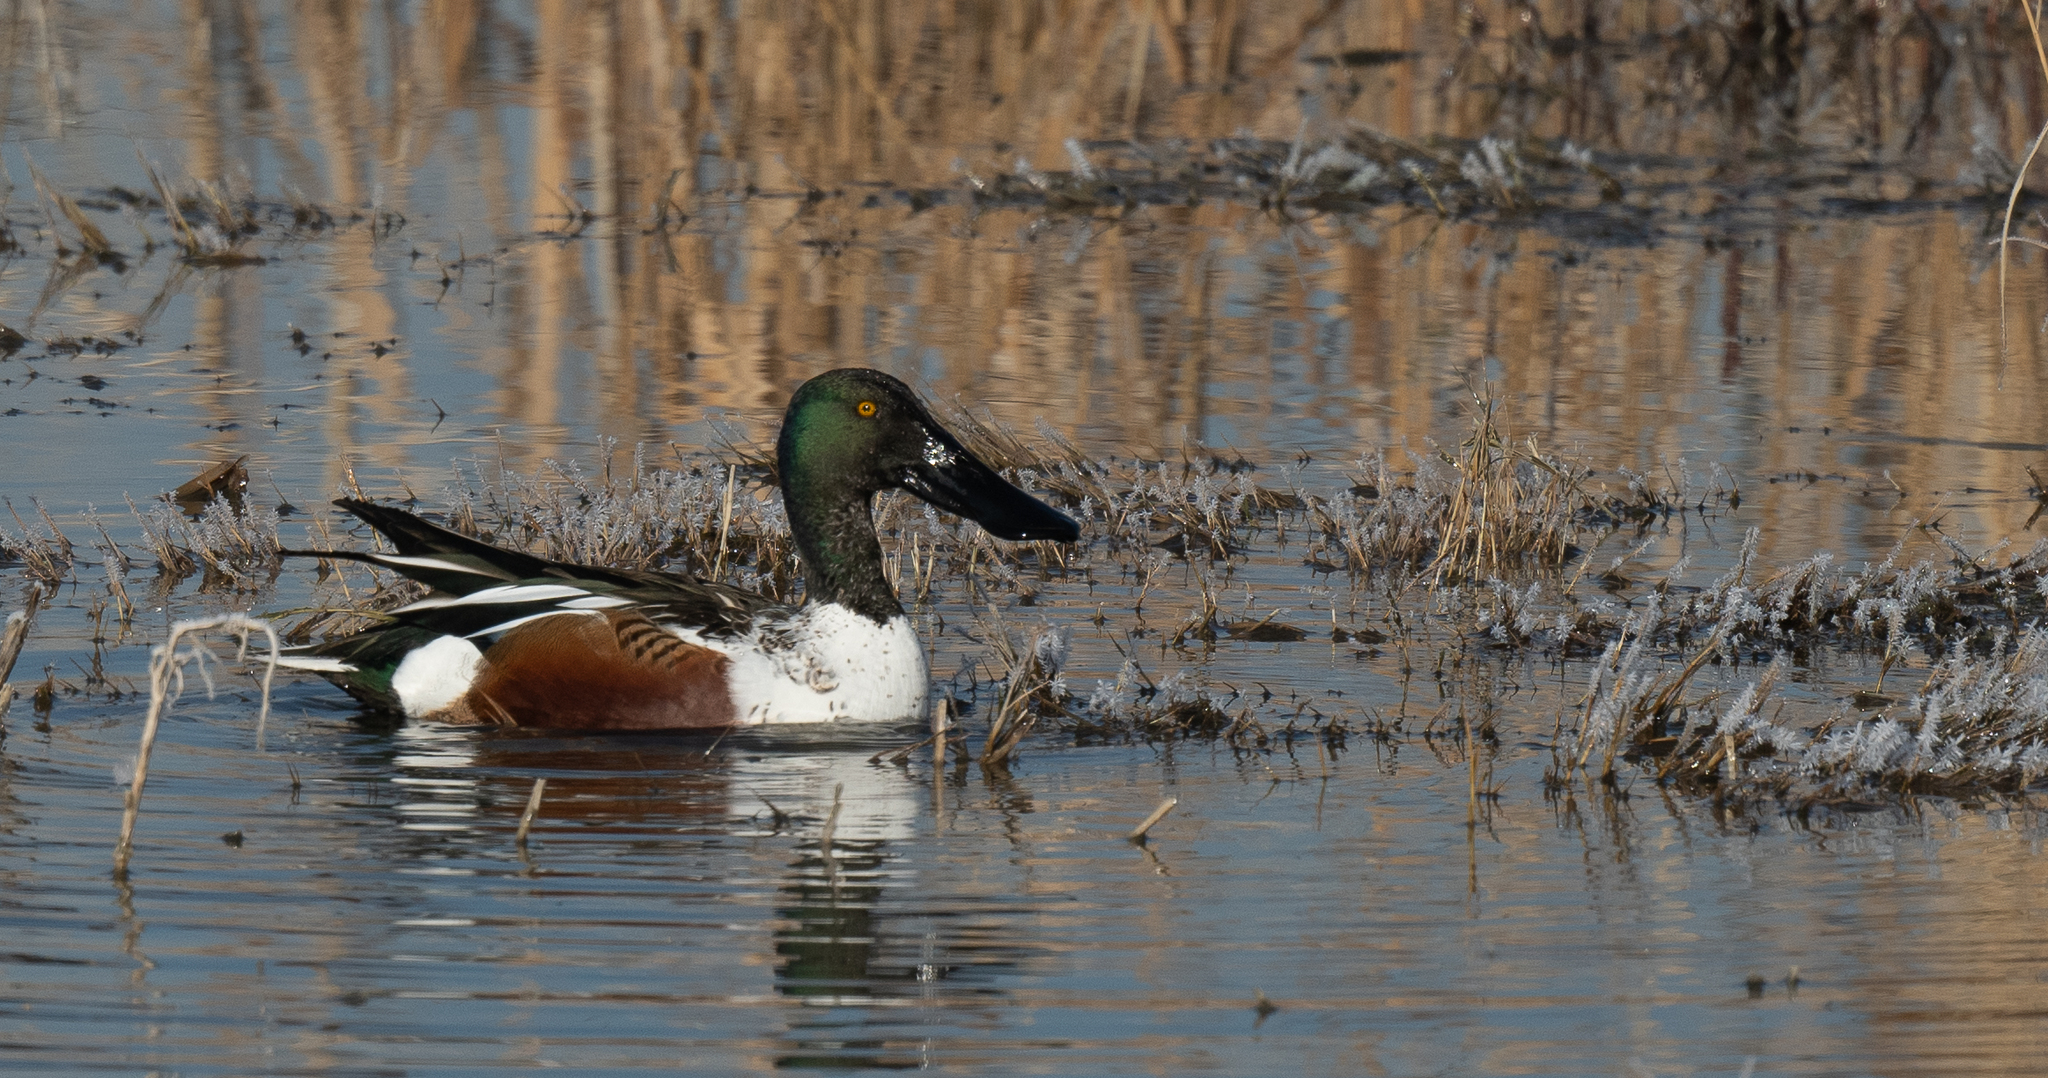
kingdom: Animalia
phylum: Chordata
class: Aves
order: Anseriformes
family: Anatidae
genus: Spatula
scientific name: Spatula clypeata
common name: Northern shoveler
